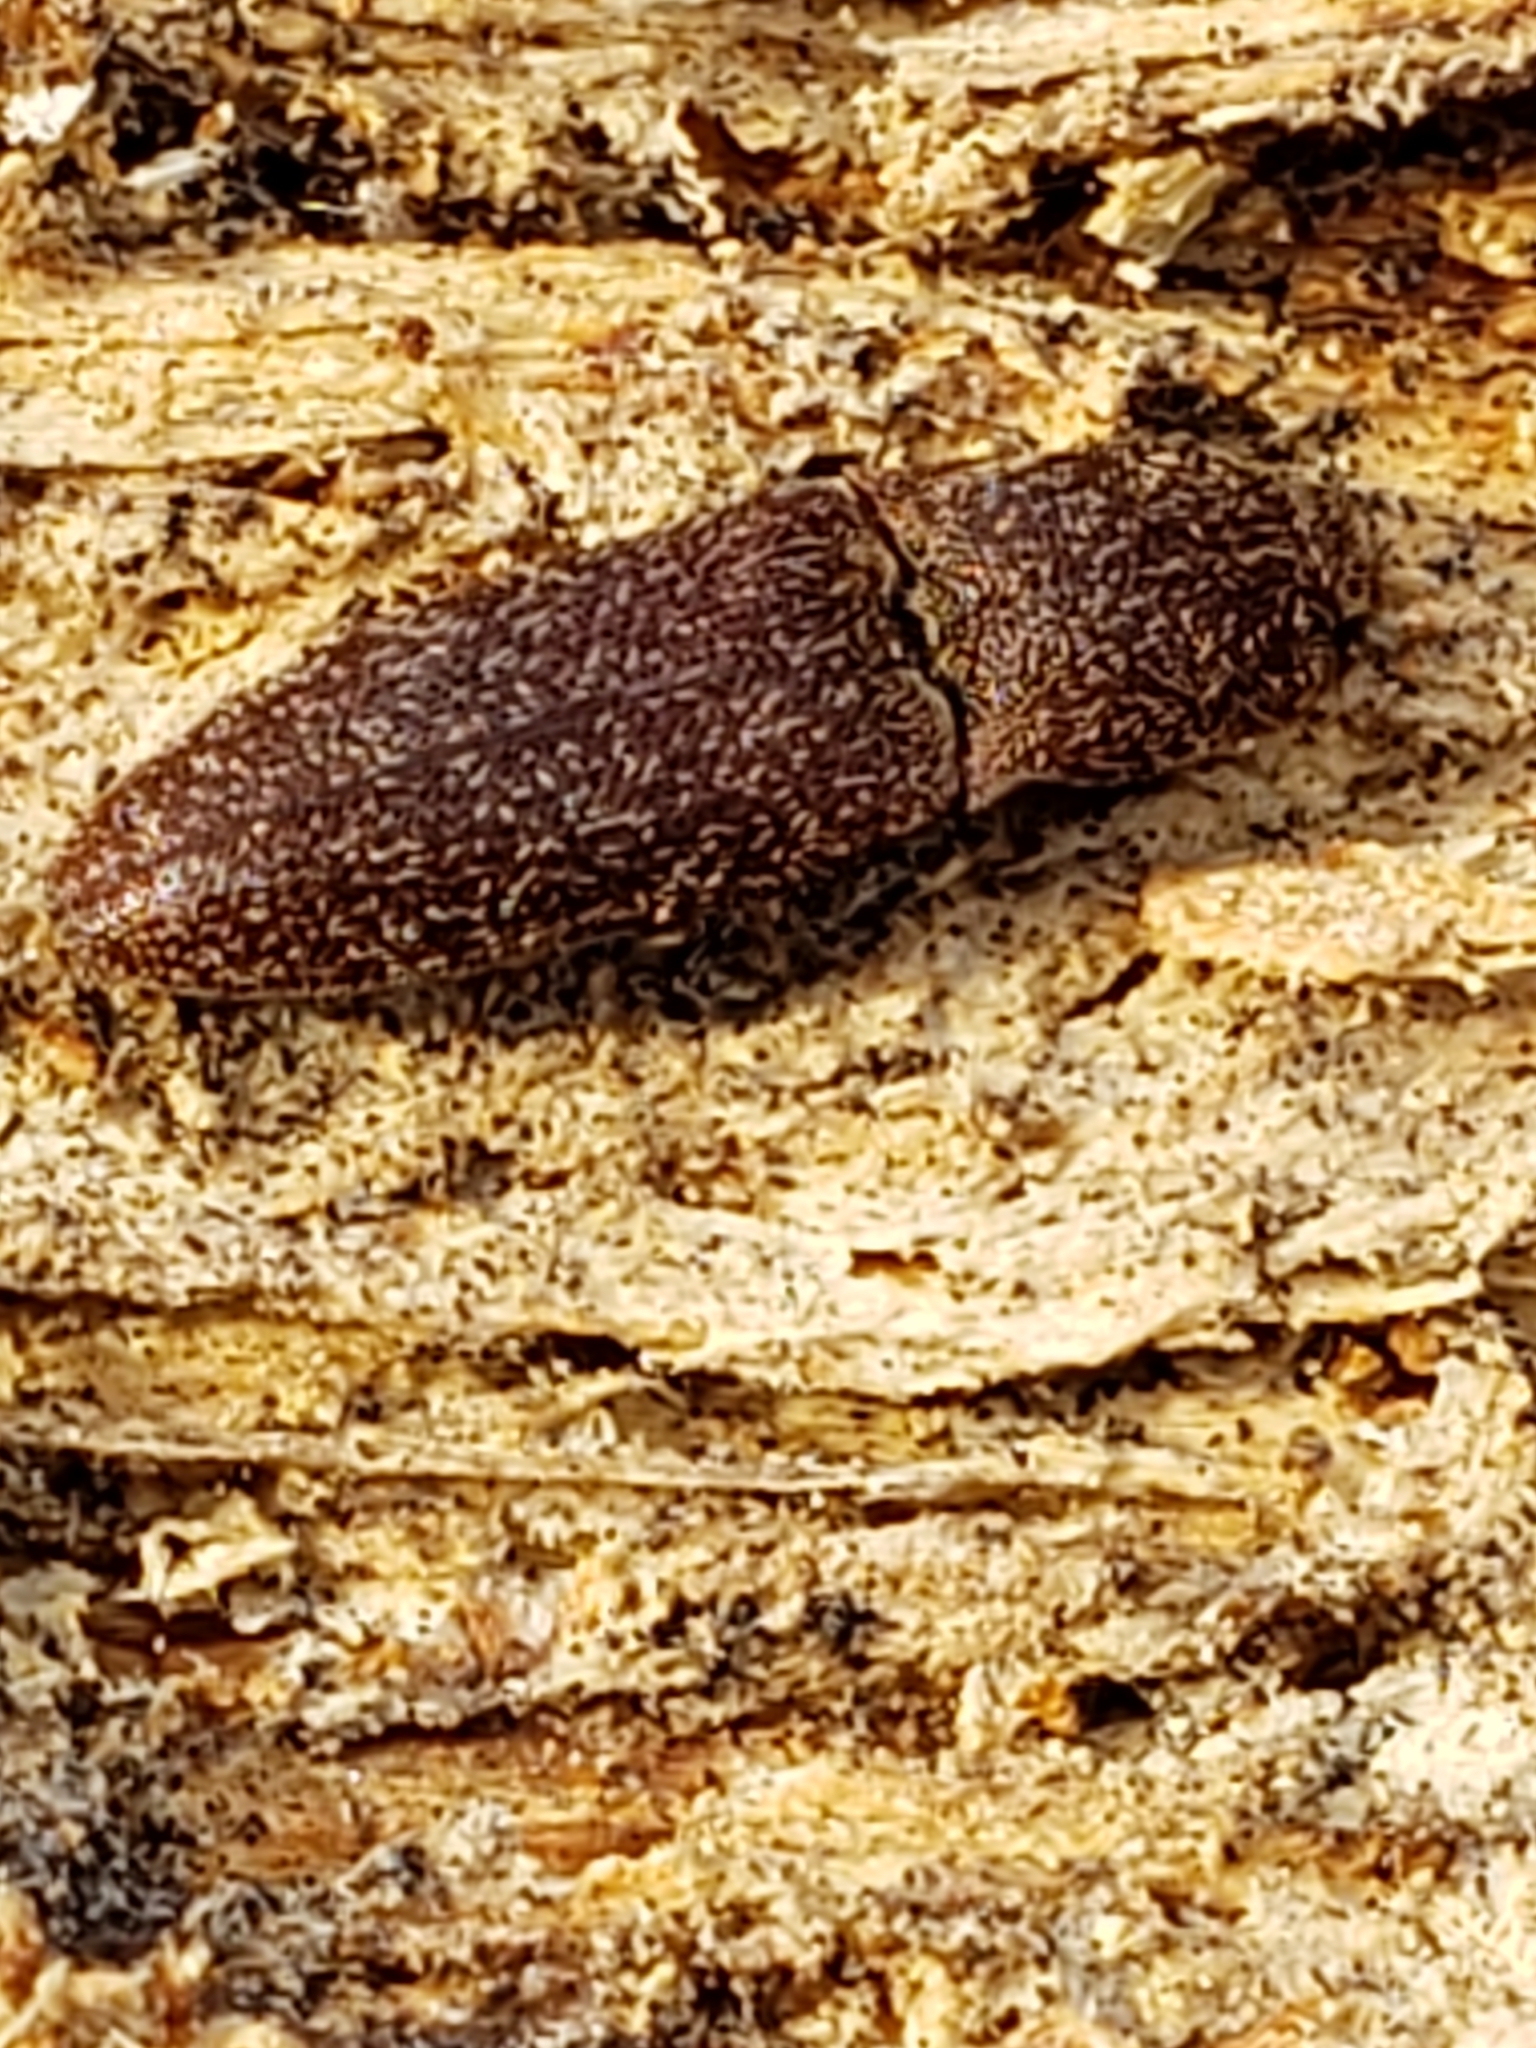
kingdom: Animalia
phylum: Arthropoda
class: Insecta
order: Coleoptera
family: Elateridae
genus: Lacon
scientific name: Lacon impressicollis
